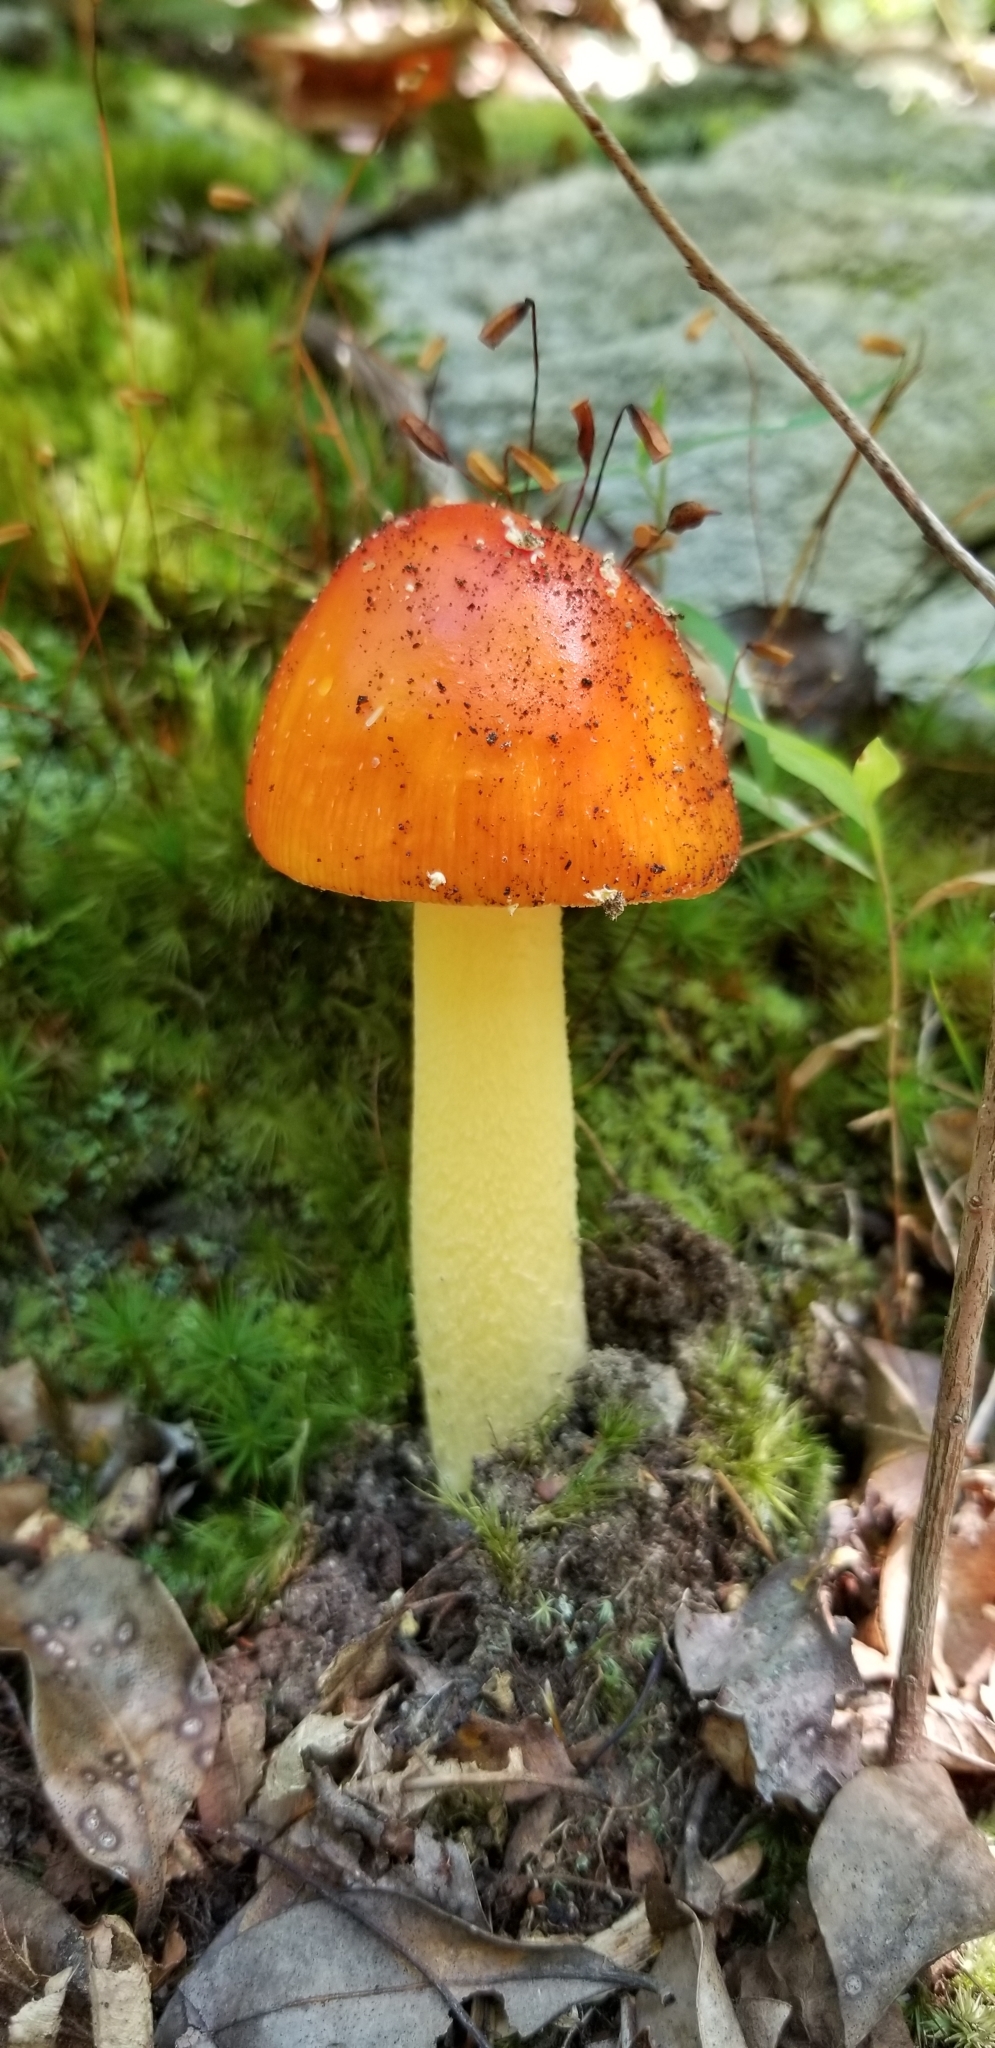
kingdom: Fungi
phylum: Basidiomycota
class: Agaricomycetes
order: Agaricales
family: Amanitaceae
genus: Amanita
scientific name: Amanita parcivolvata
